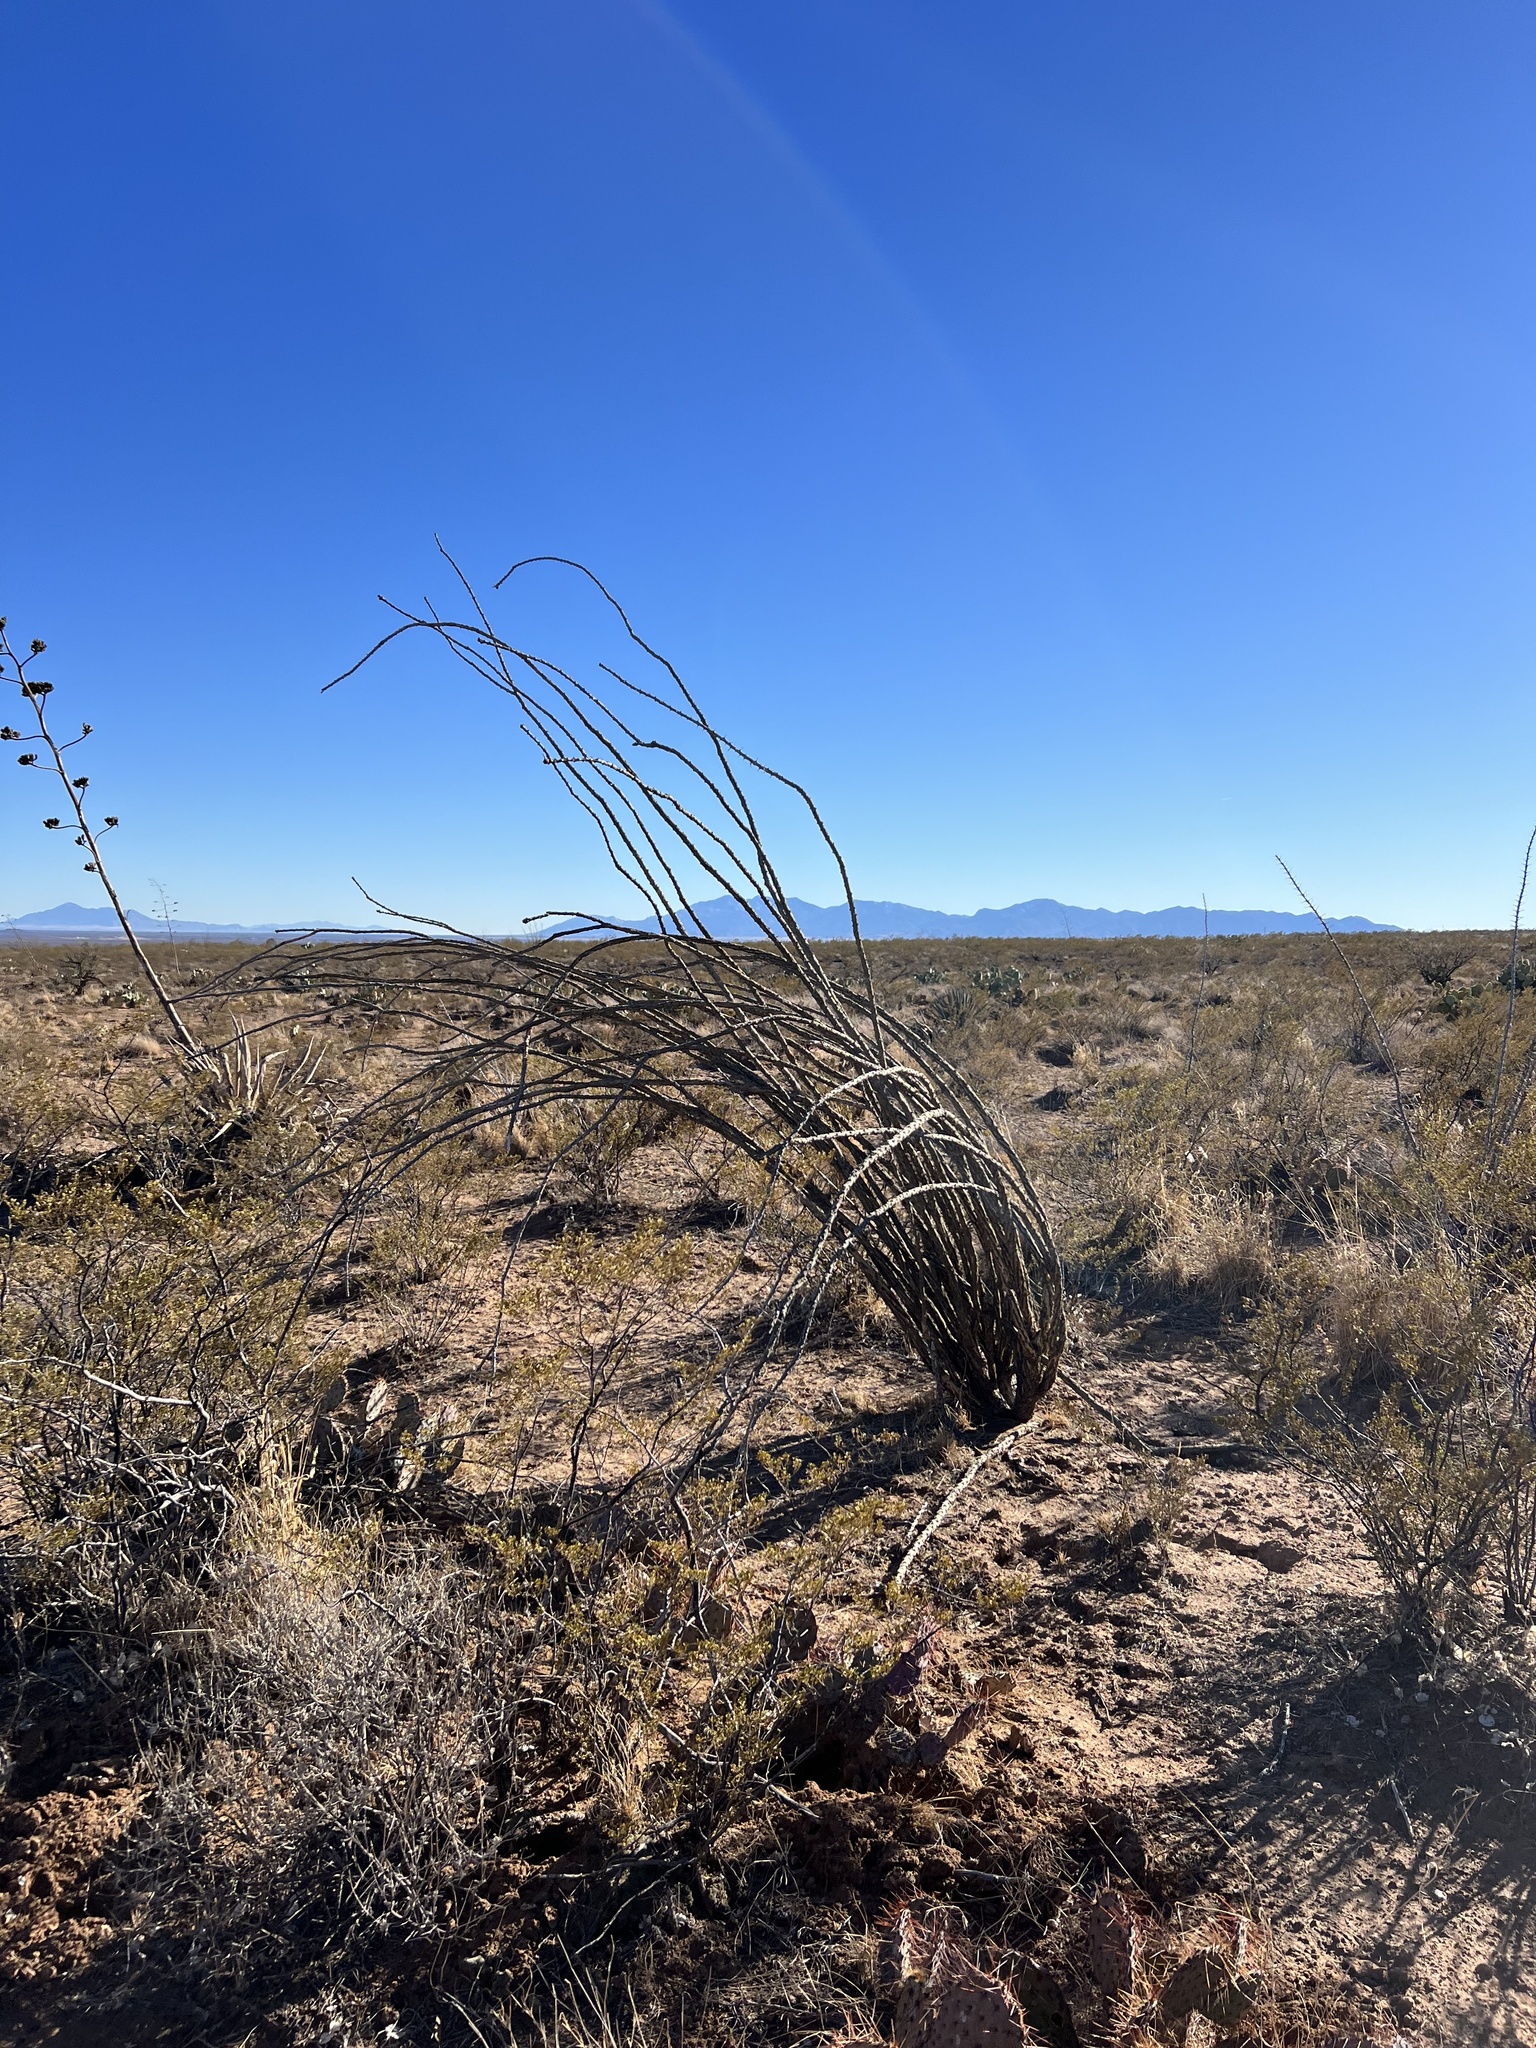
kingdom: Plantae
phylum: Tracheophyta
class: Magnoliopsida
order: Ericales
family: Fouquieriaceae
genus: Fouquieria
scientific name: Fouquieria splendens
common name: Vine-cactus
